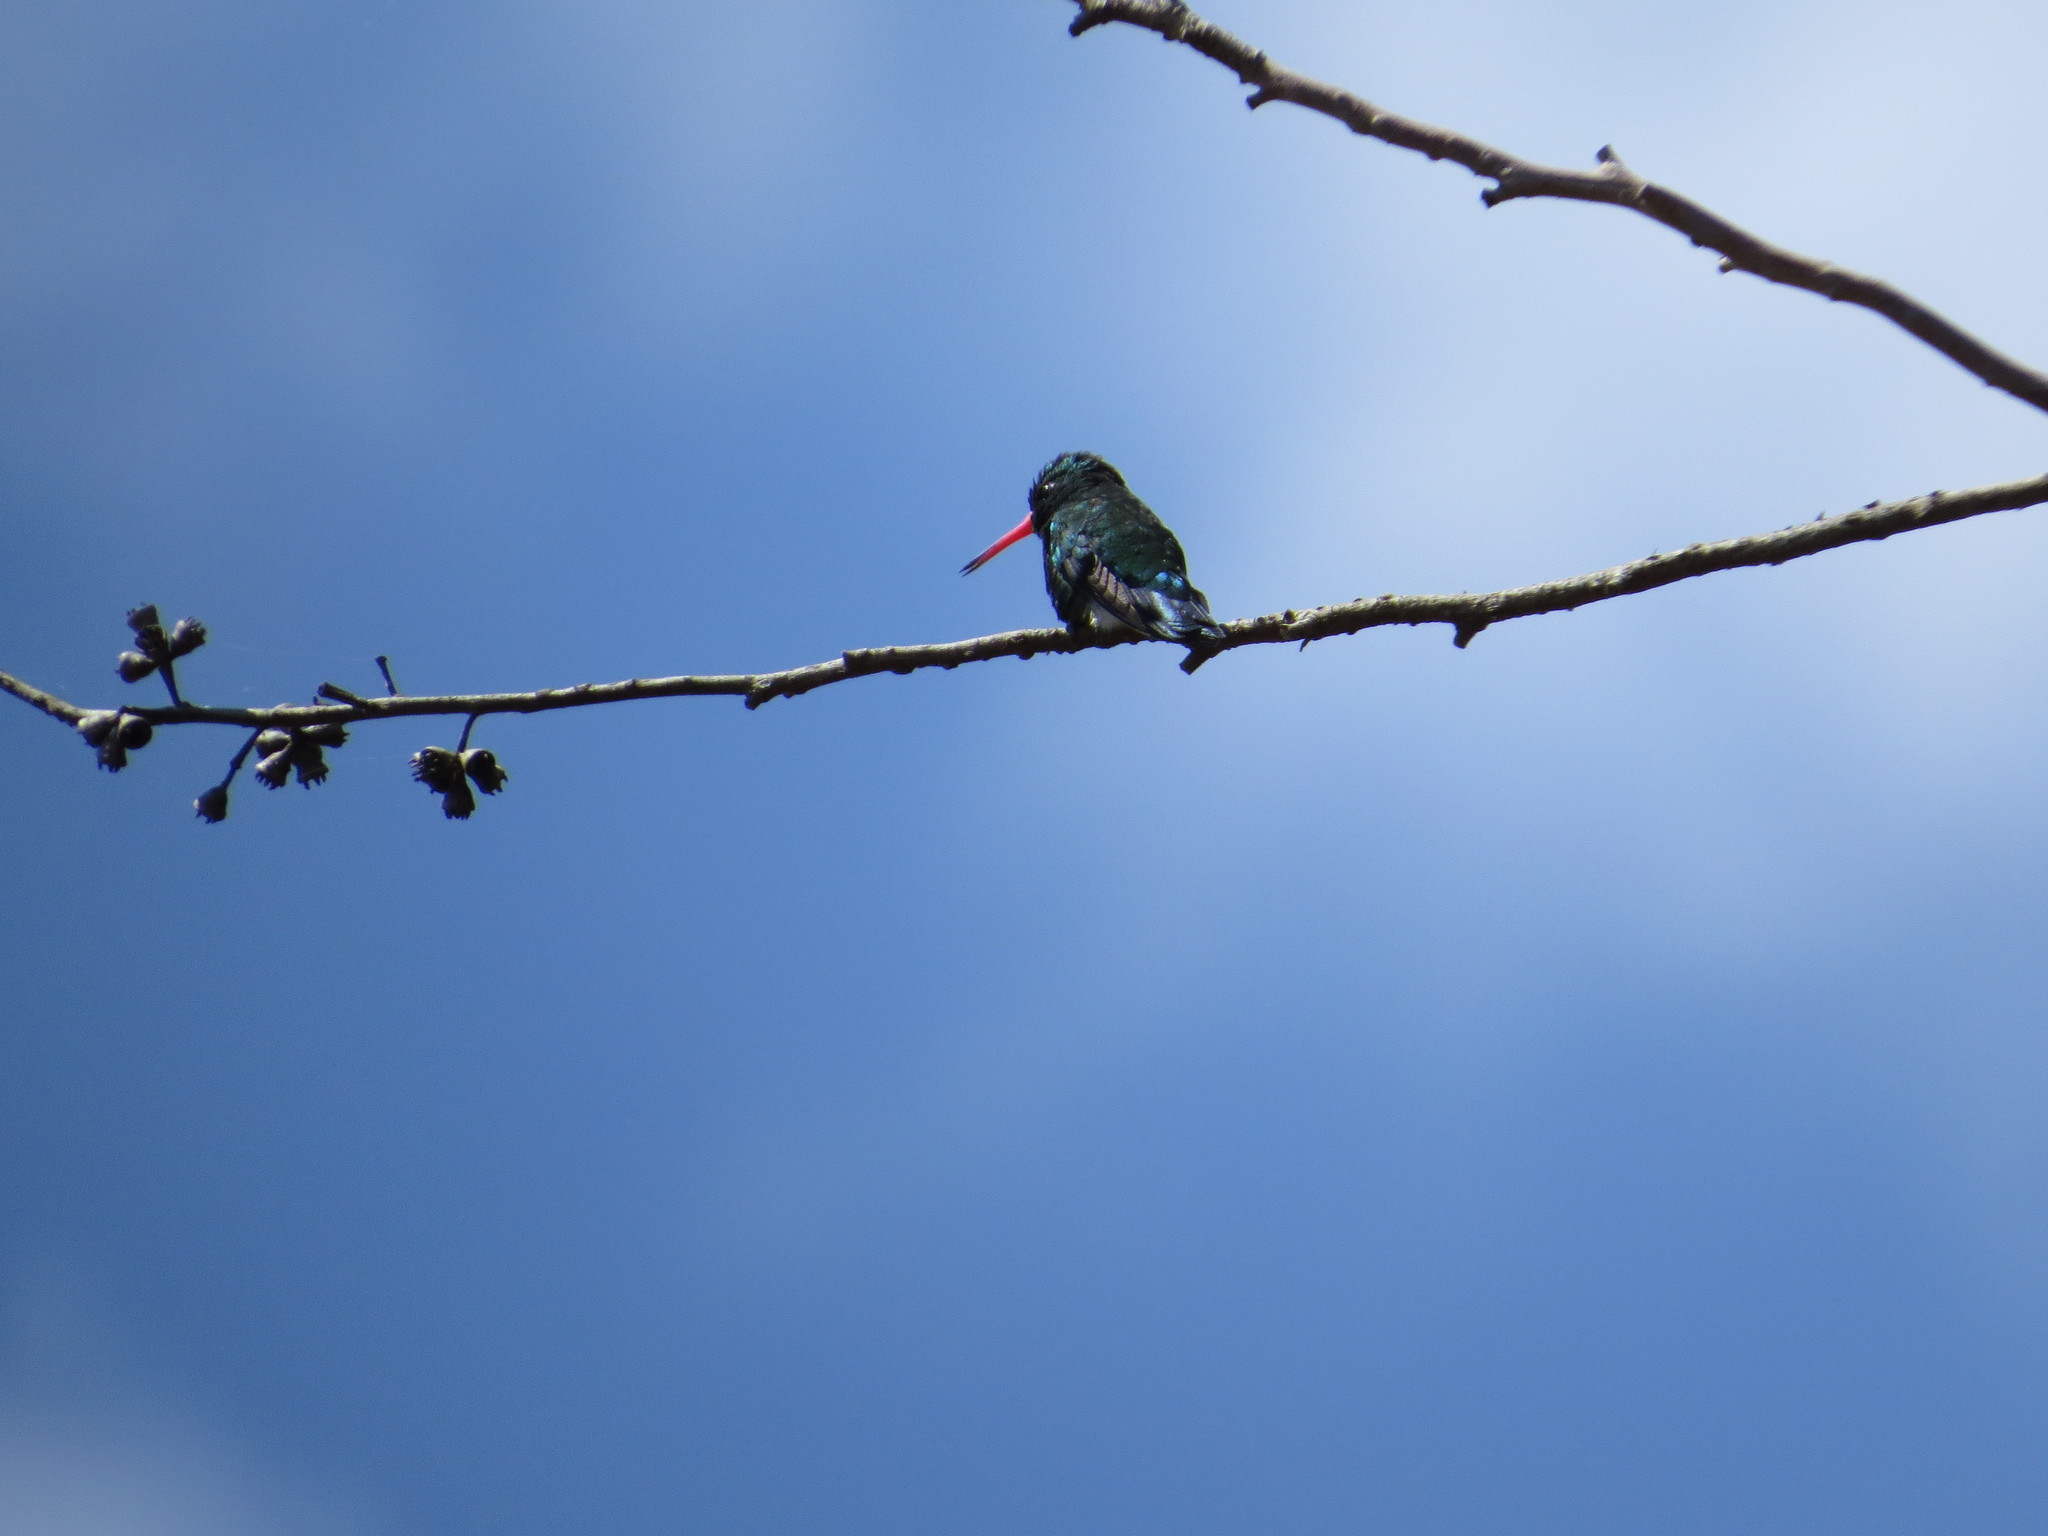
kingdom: Animalia
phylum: Chordata
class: Aves
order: Apodiformes
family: Trochilidae
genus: Chlorostilbon
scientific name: Chlorostilbon lucidus
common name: Glittering-bellied emerald
